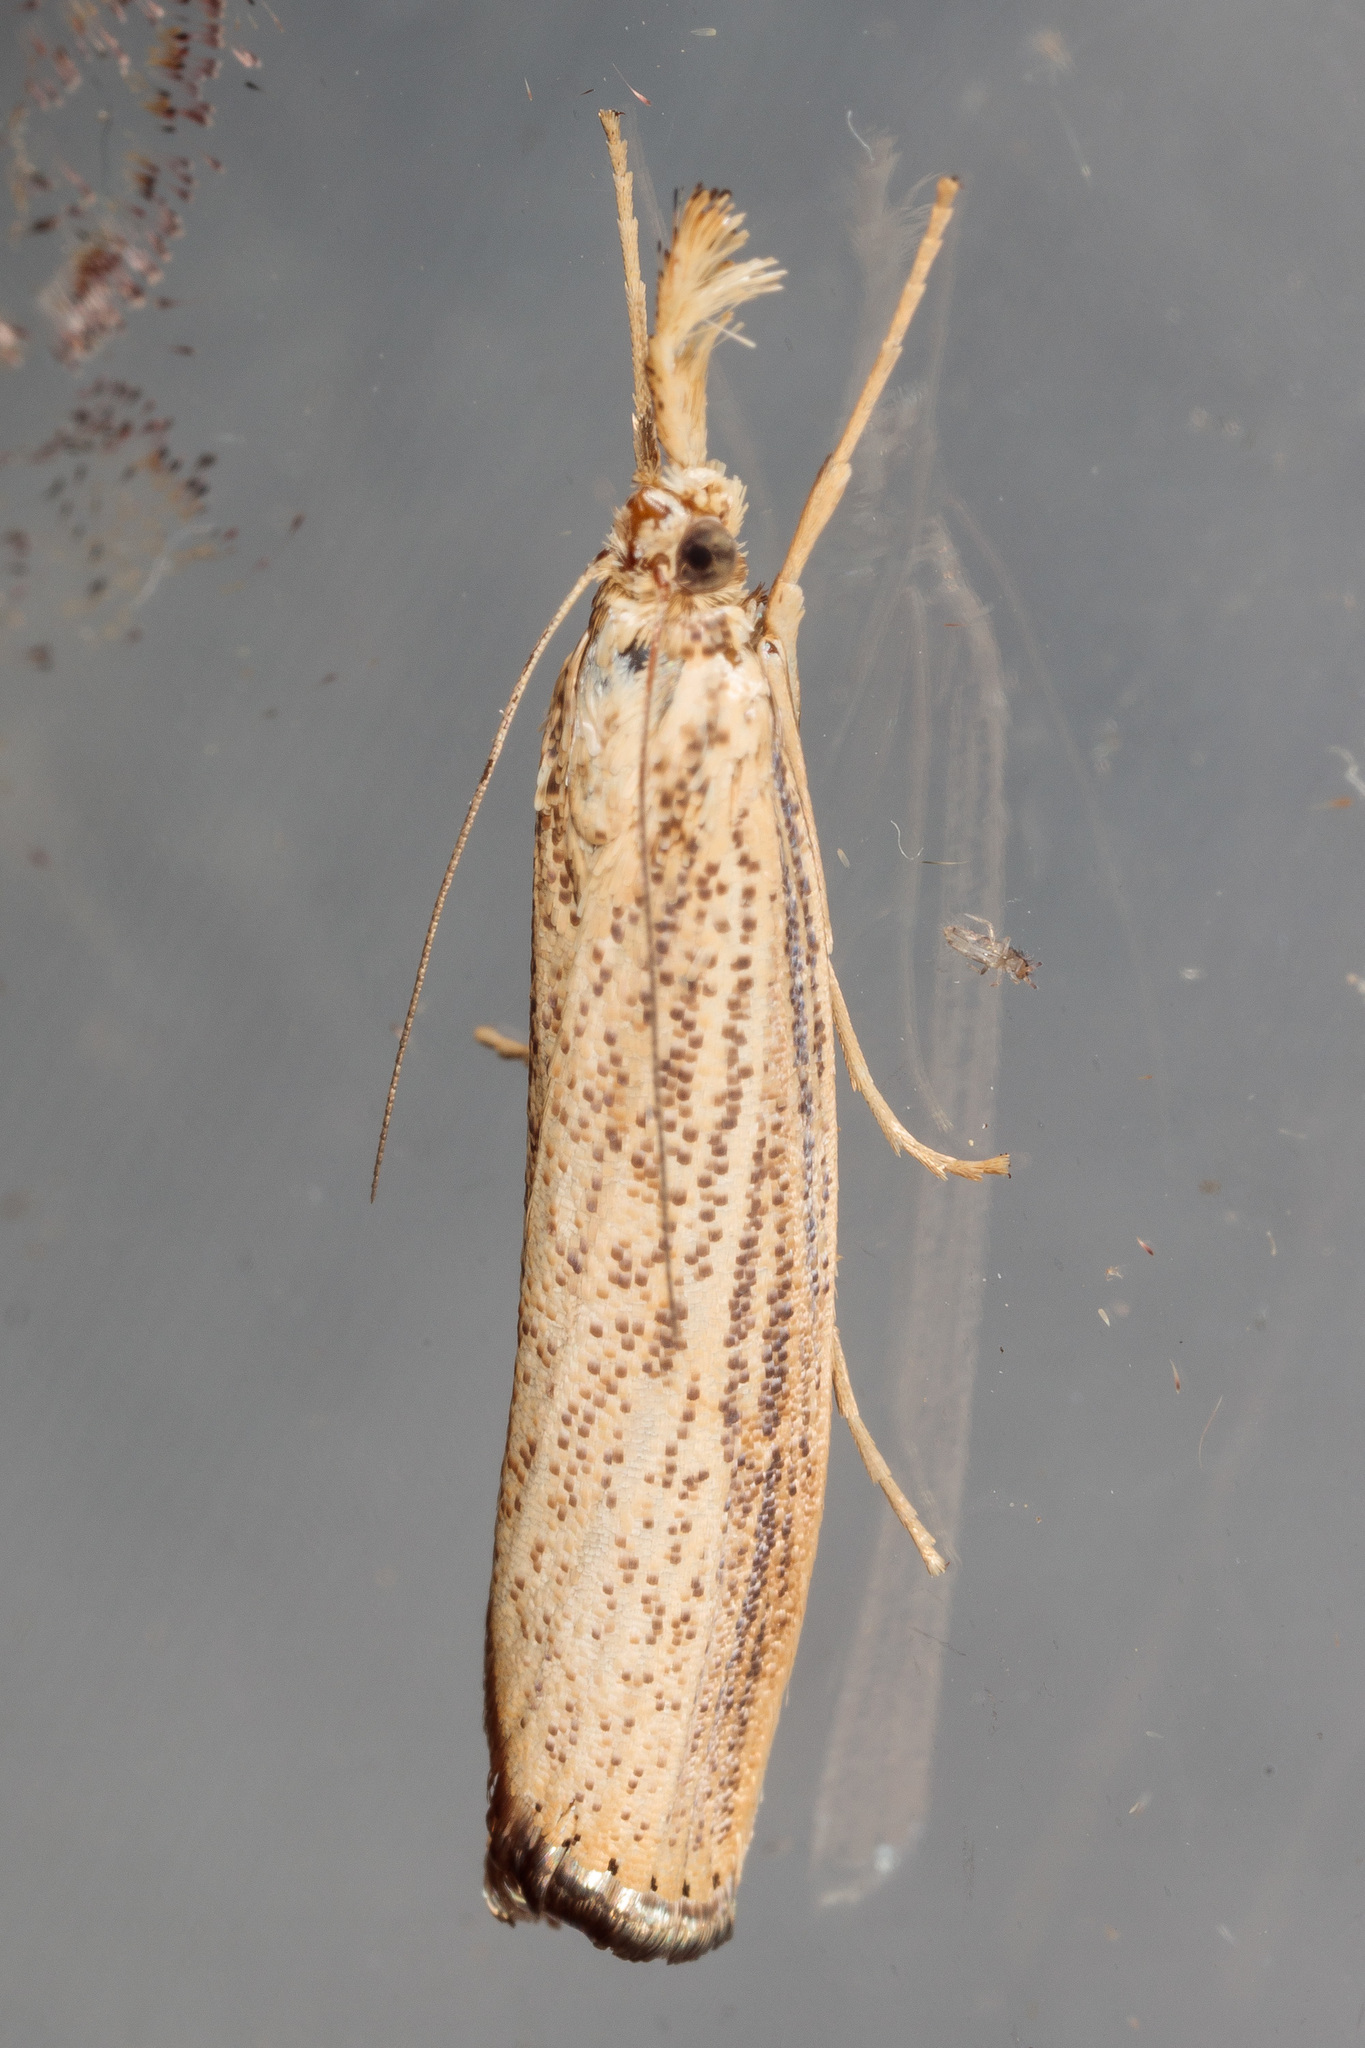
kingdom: Animalia
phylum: Arthropoda
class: Insecta
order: Lepidoptera
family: Crambidae
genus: Agriphila
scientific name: Agriphila vulgivagellus
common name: Vagabond crambus moth
